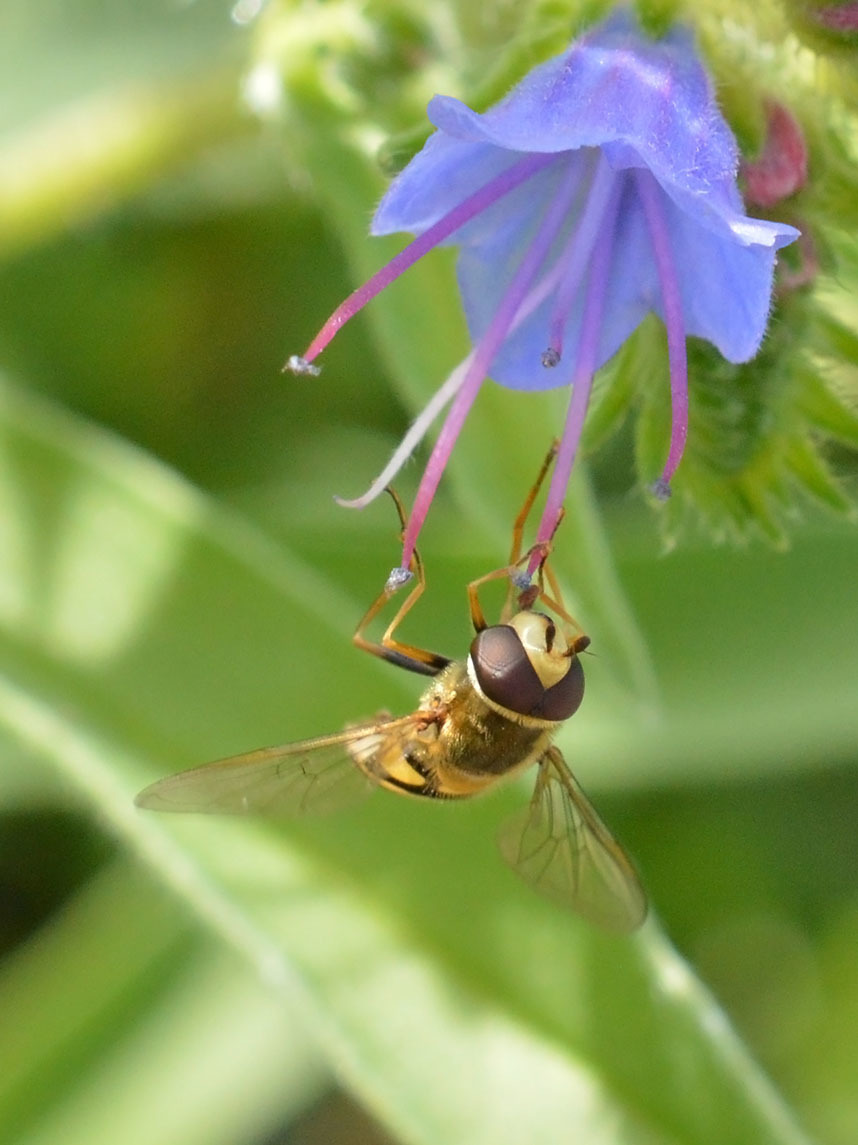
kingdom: Animalia
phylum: Arthropoda
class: Insecta
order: Diptera
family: Syrphidae
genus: Eupeodes
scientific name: Eupeodes corollae
